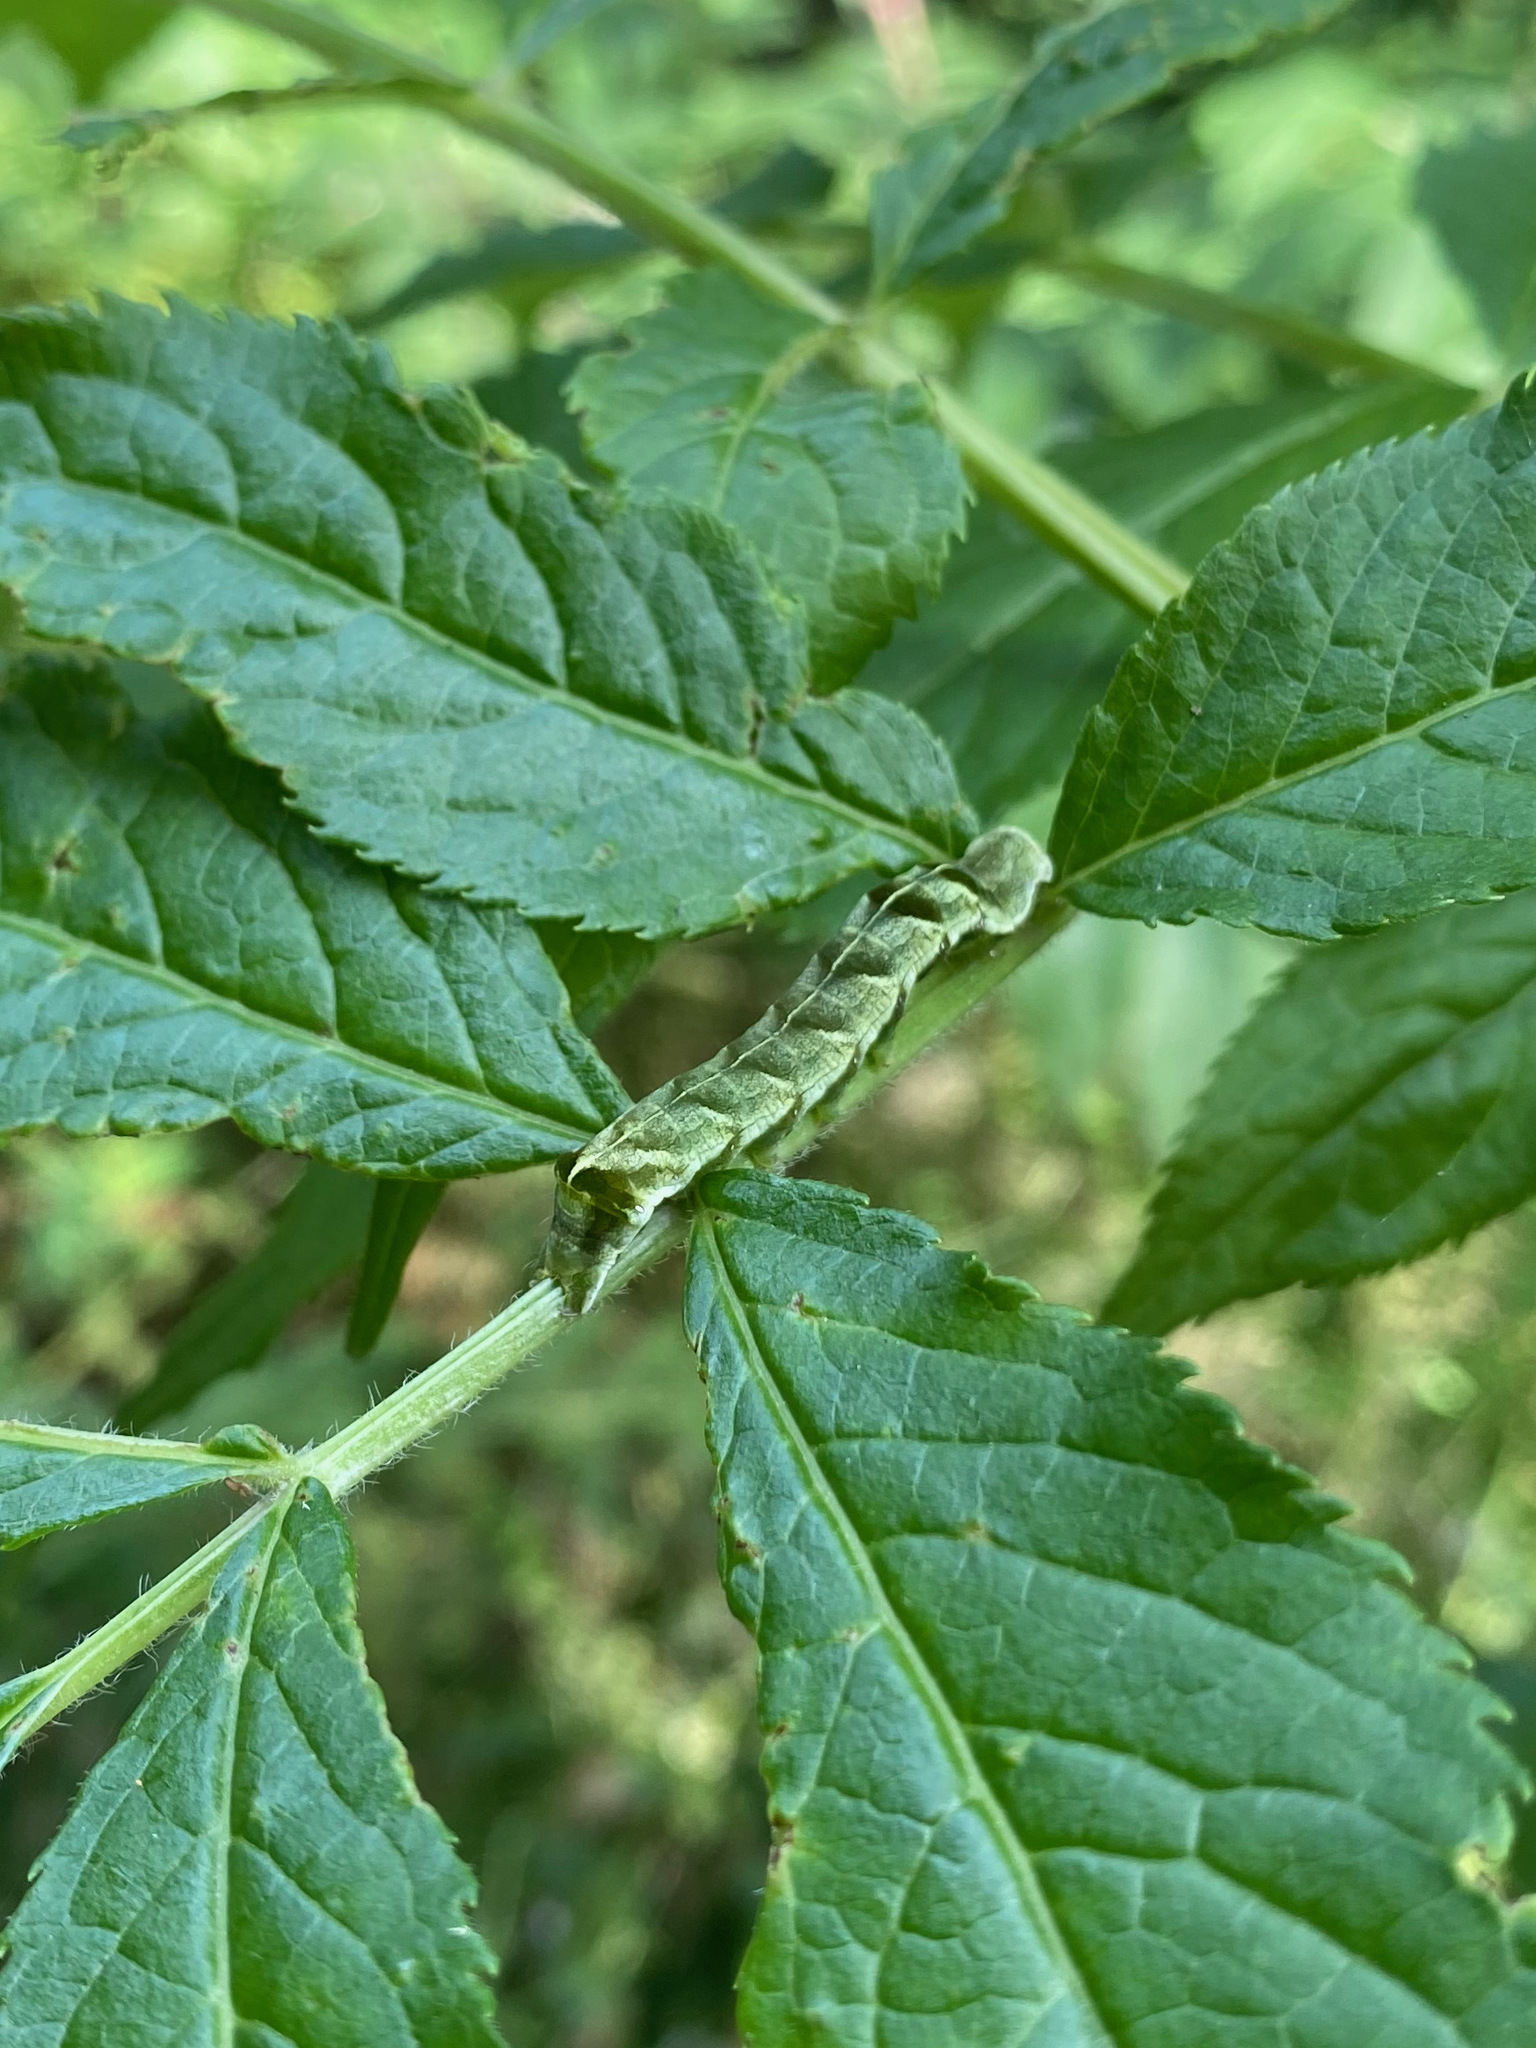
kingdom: Animalia
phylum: Arthropoda
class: Insecta
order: Lepidoptera
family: Noctuidae
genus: Melanchra
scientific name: Melanchra adjuncta
